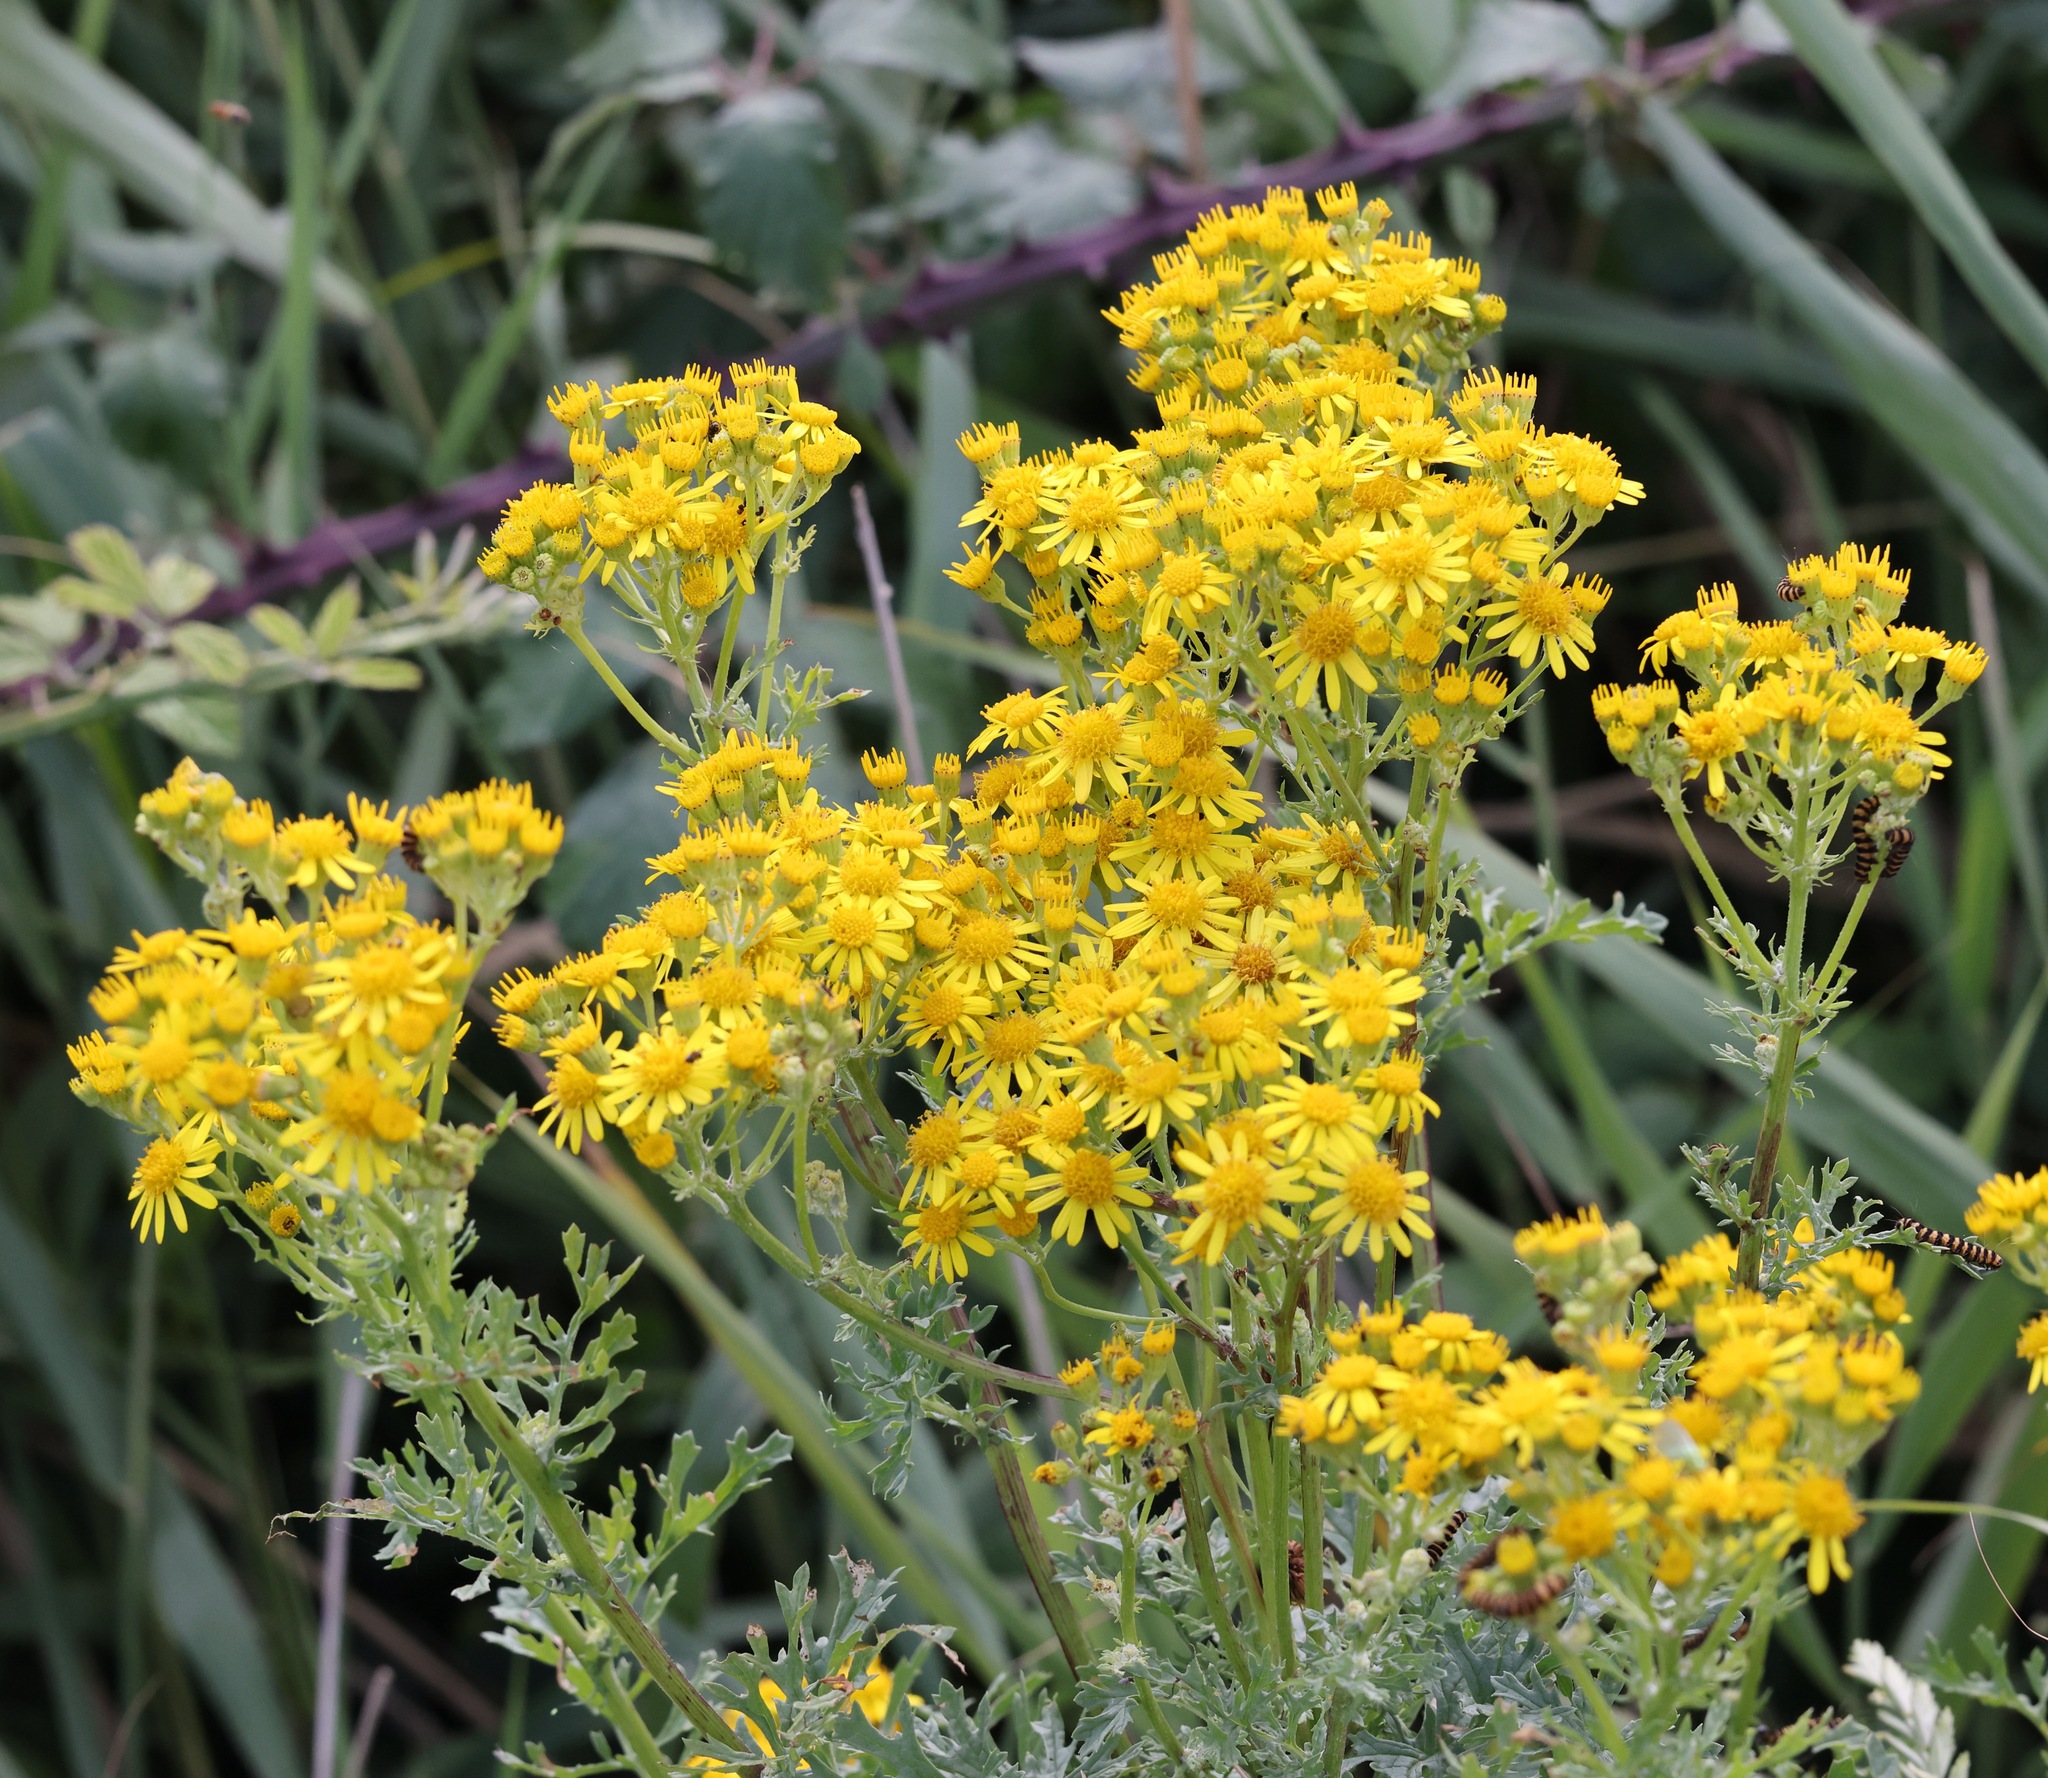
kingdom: Plantae
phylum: Tracheophyta
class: Magnoliopsida
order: Asterales
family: Asteraceae
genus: Jacobaea
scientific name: Jacobaea vulgaris
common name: Stinking willie
